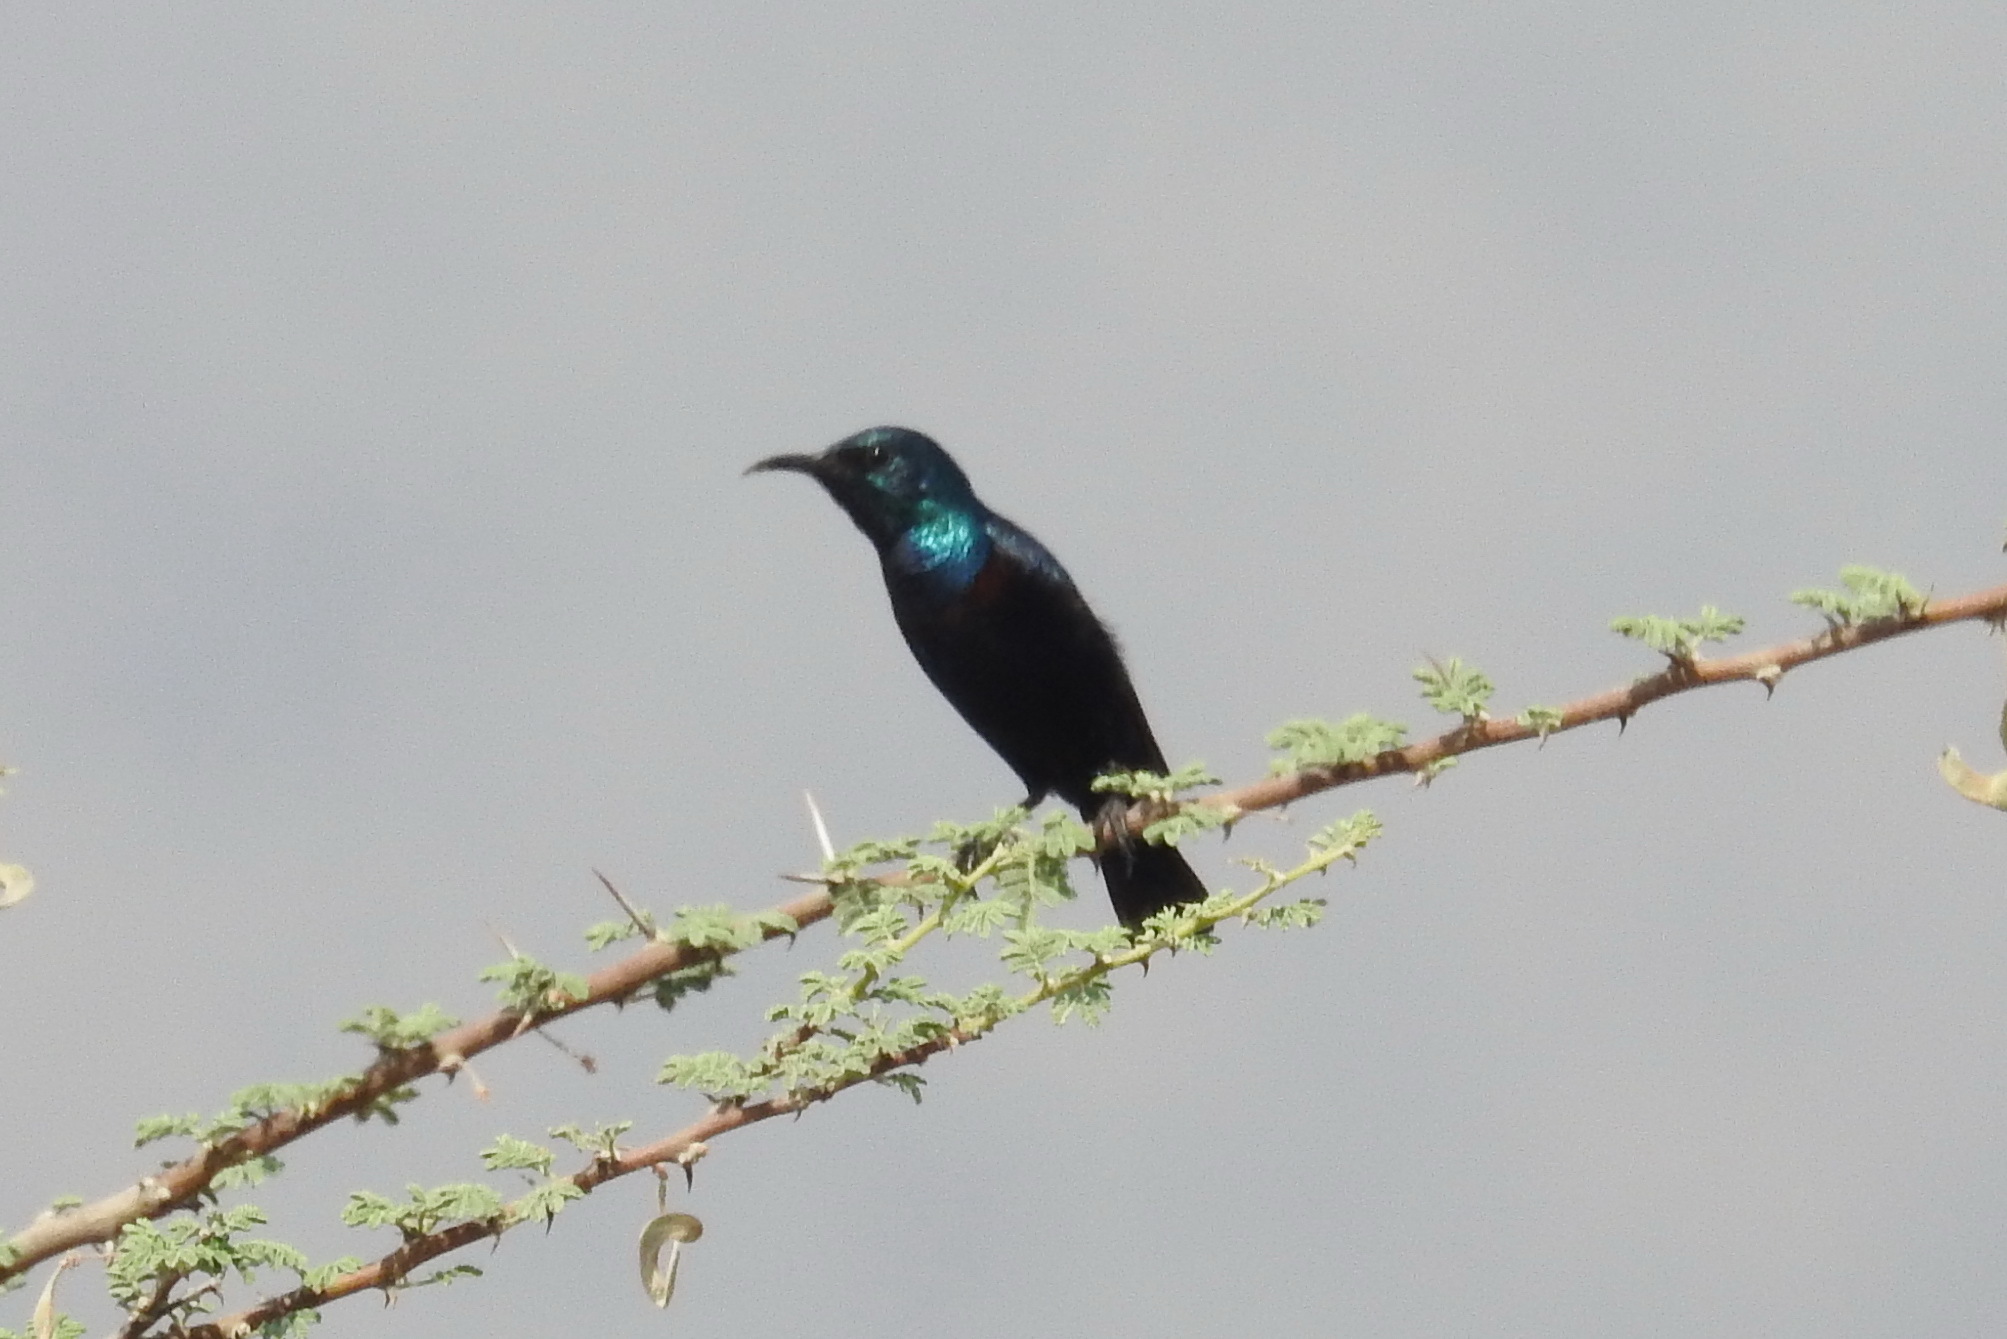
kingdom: Animalia
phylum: Chordata
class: Aves
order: Passeriformes
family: Nectariniidae
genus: Cinnyris
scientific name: Cinnyris asiaticus
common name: Purple sunbird
